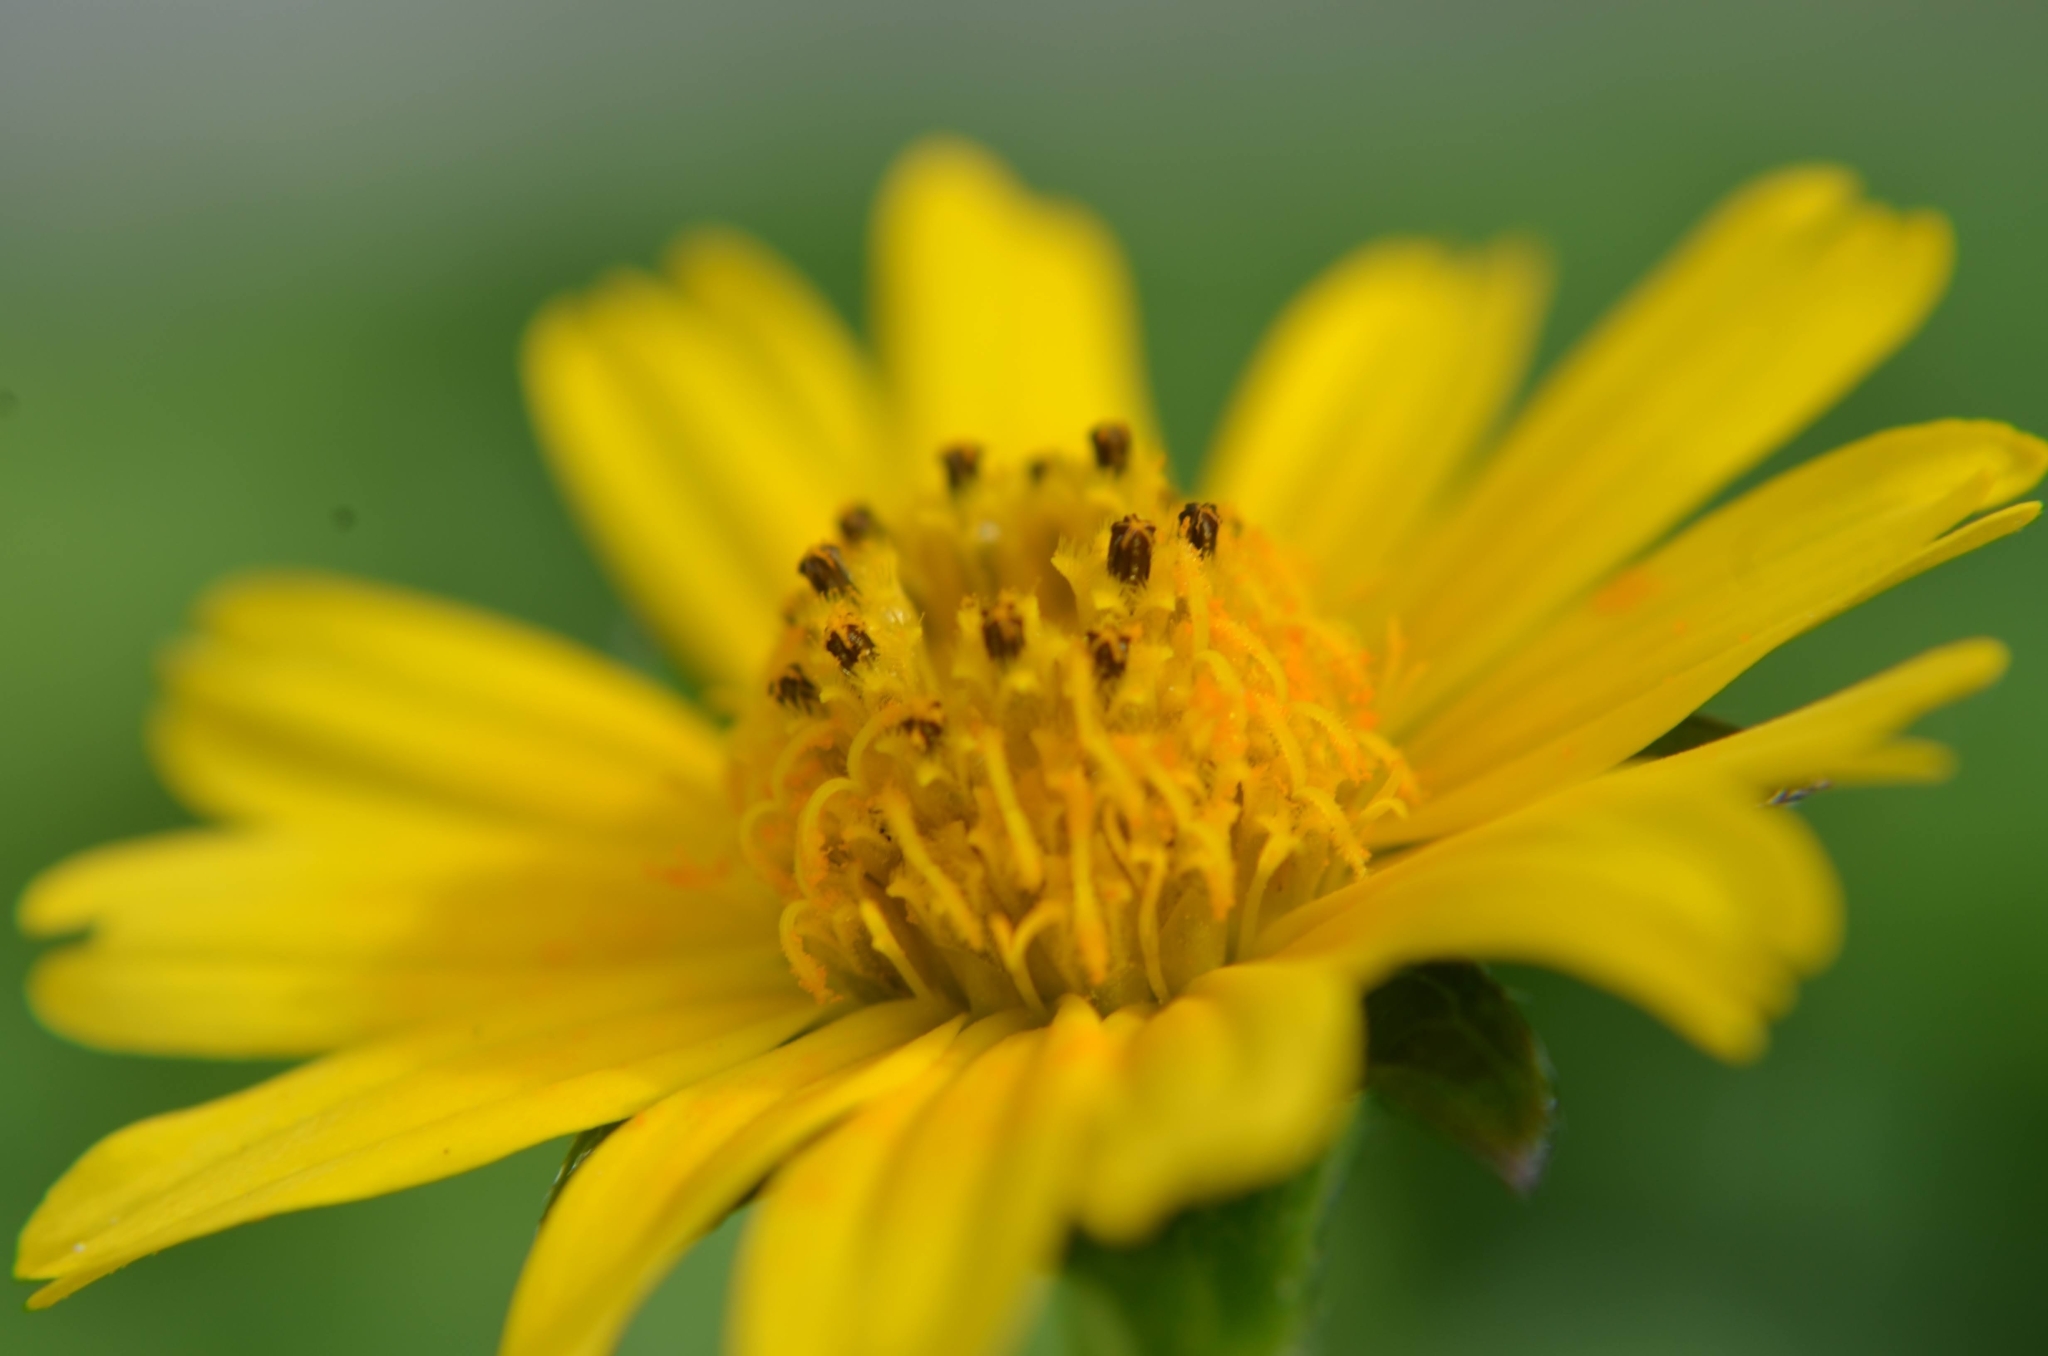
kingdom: Plantae
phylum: Tracheophyta
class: Magnoliopsida
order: Asterales
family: Asteraceae
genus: Sphagneticola
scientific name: Sphagneticola trilobata
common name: Bay biscayne creeping-oxeye
